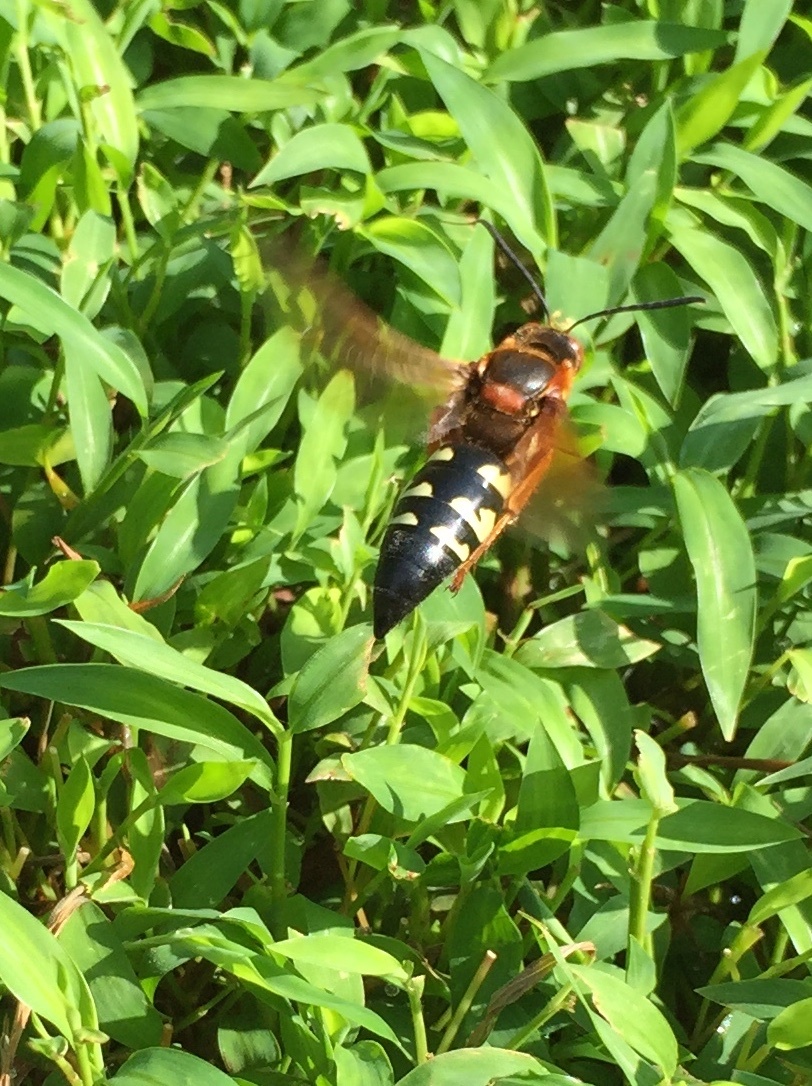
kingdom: Animalia
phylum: Arthropoda
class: Insecta
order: Hymenoptera
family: Crabronidae
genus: Sphecius
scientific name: Sphecius speciosus
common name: Cicada killer
